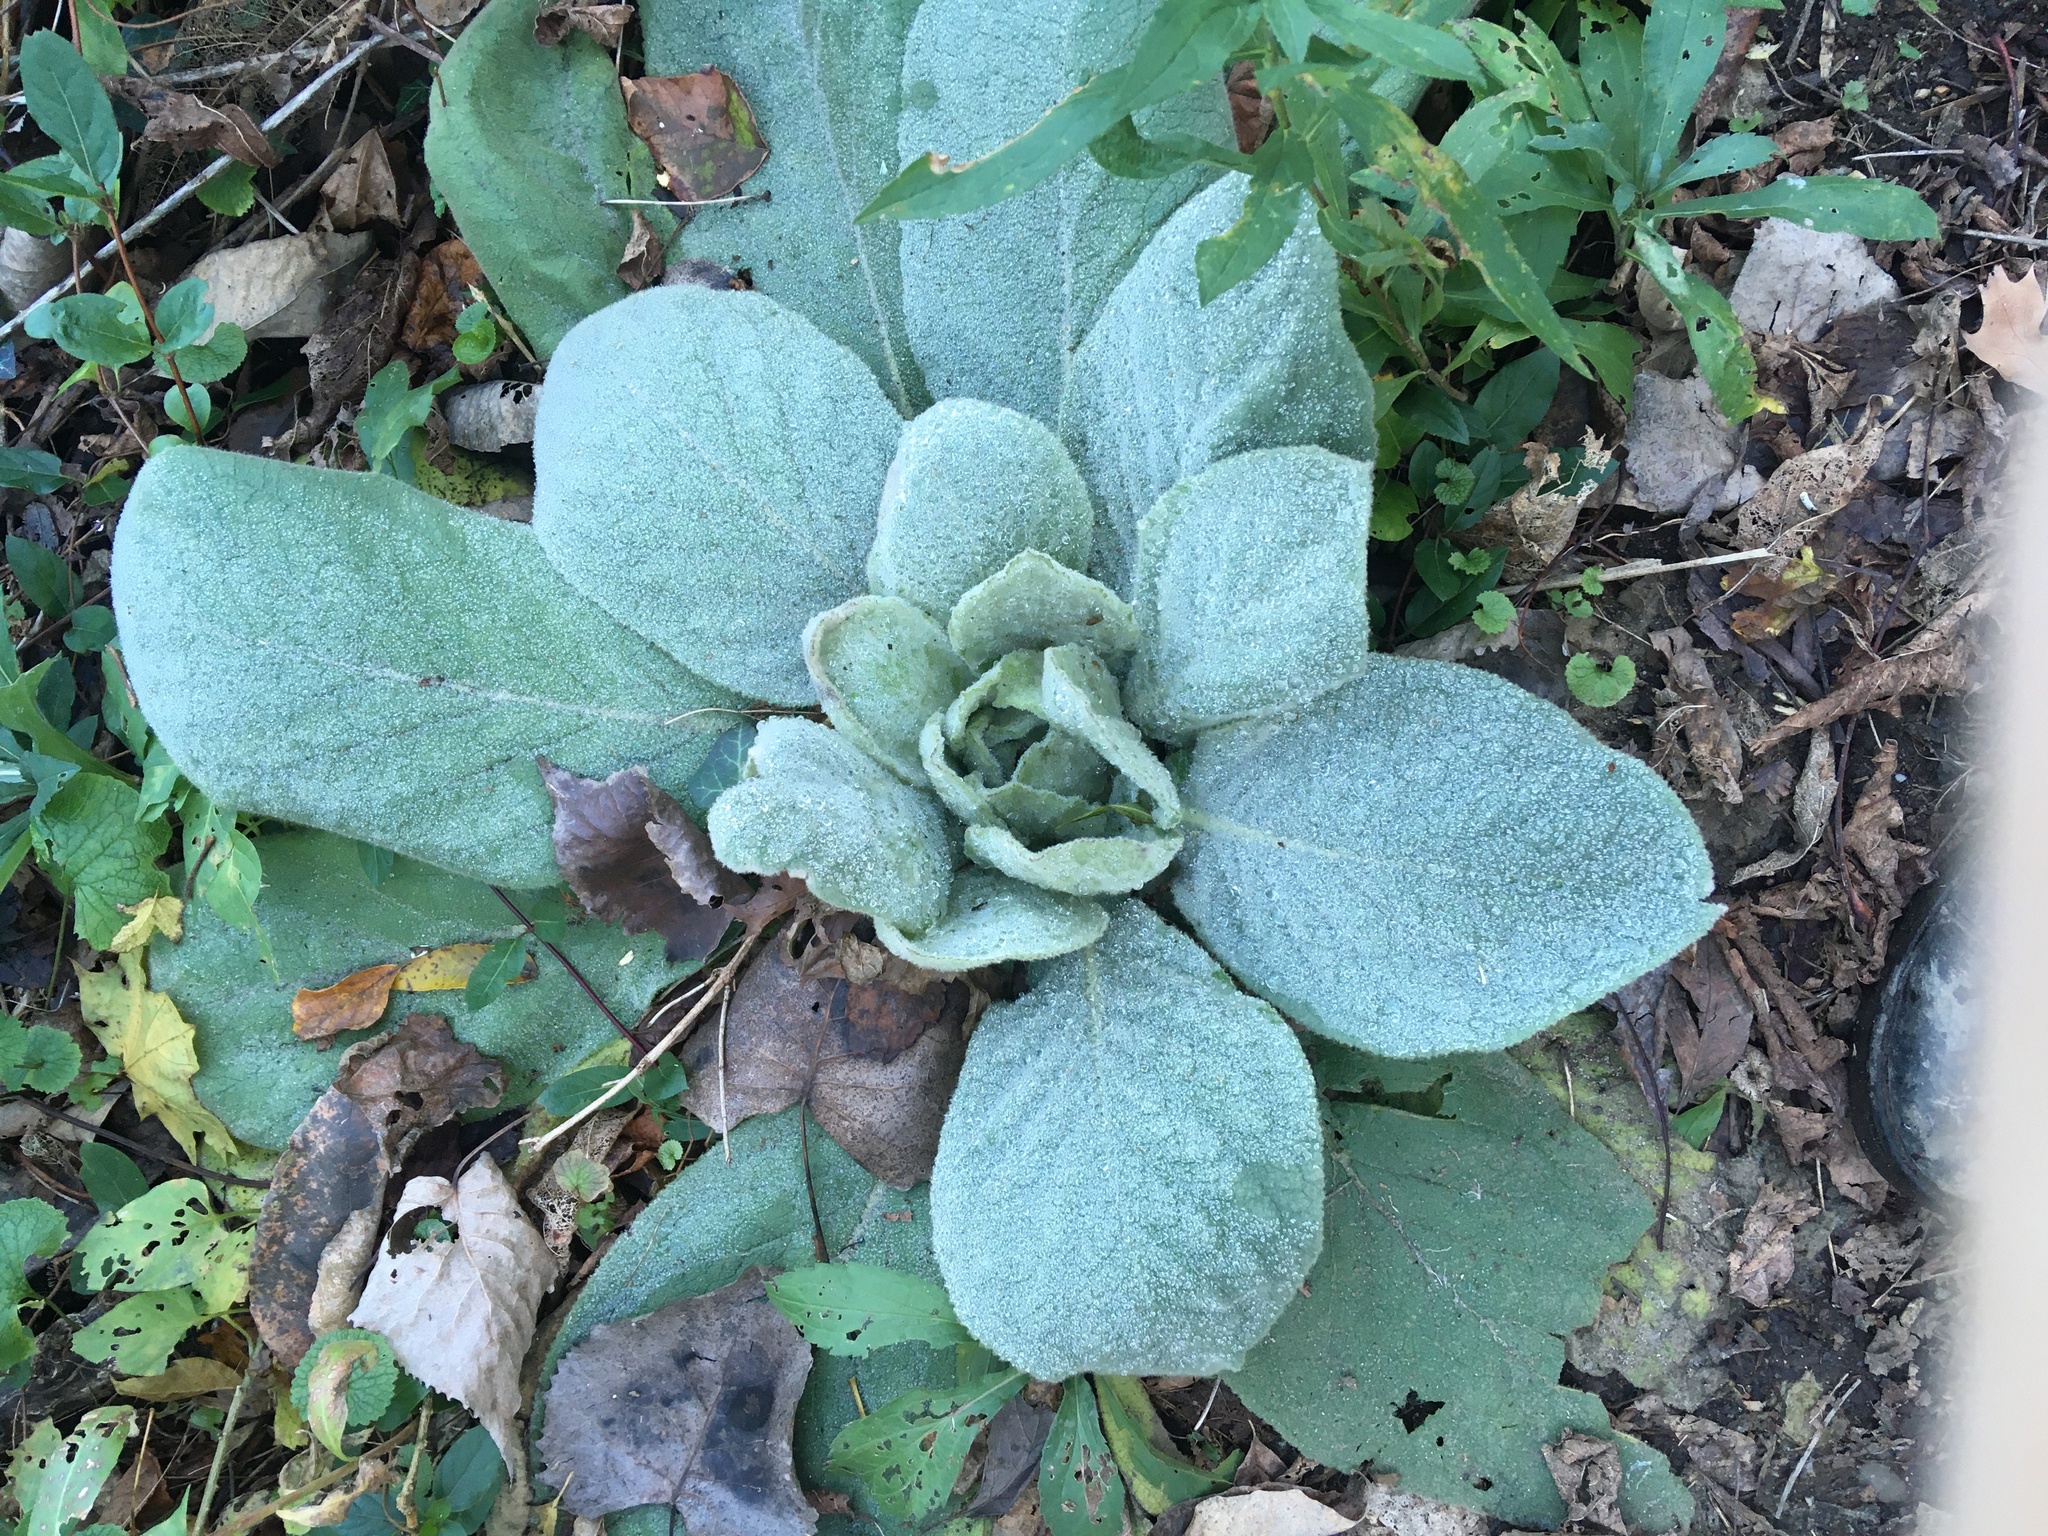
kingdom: Plantae
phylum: Tracheophyta
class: Magnoliopsida
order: Lamiales
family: Scrophulariaceae
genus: Verbascum
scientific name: Verbascum thapsus
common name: Common mullein
